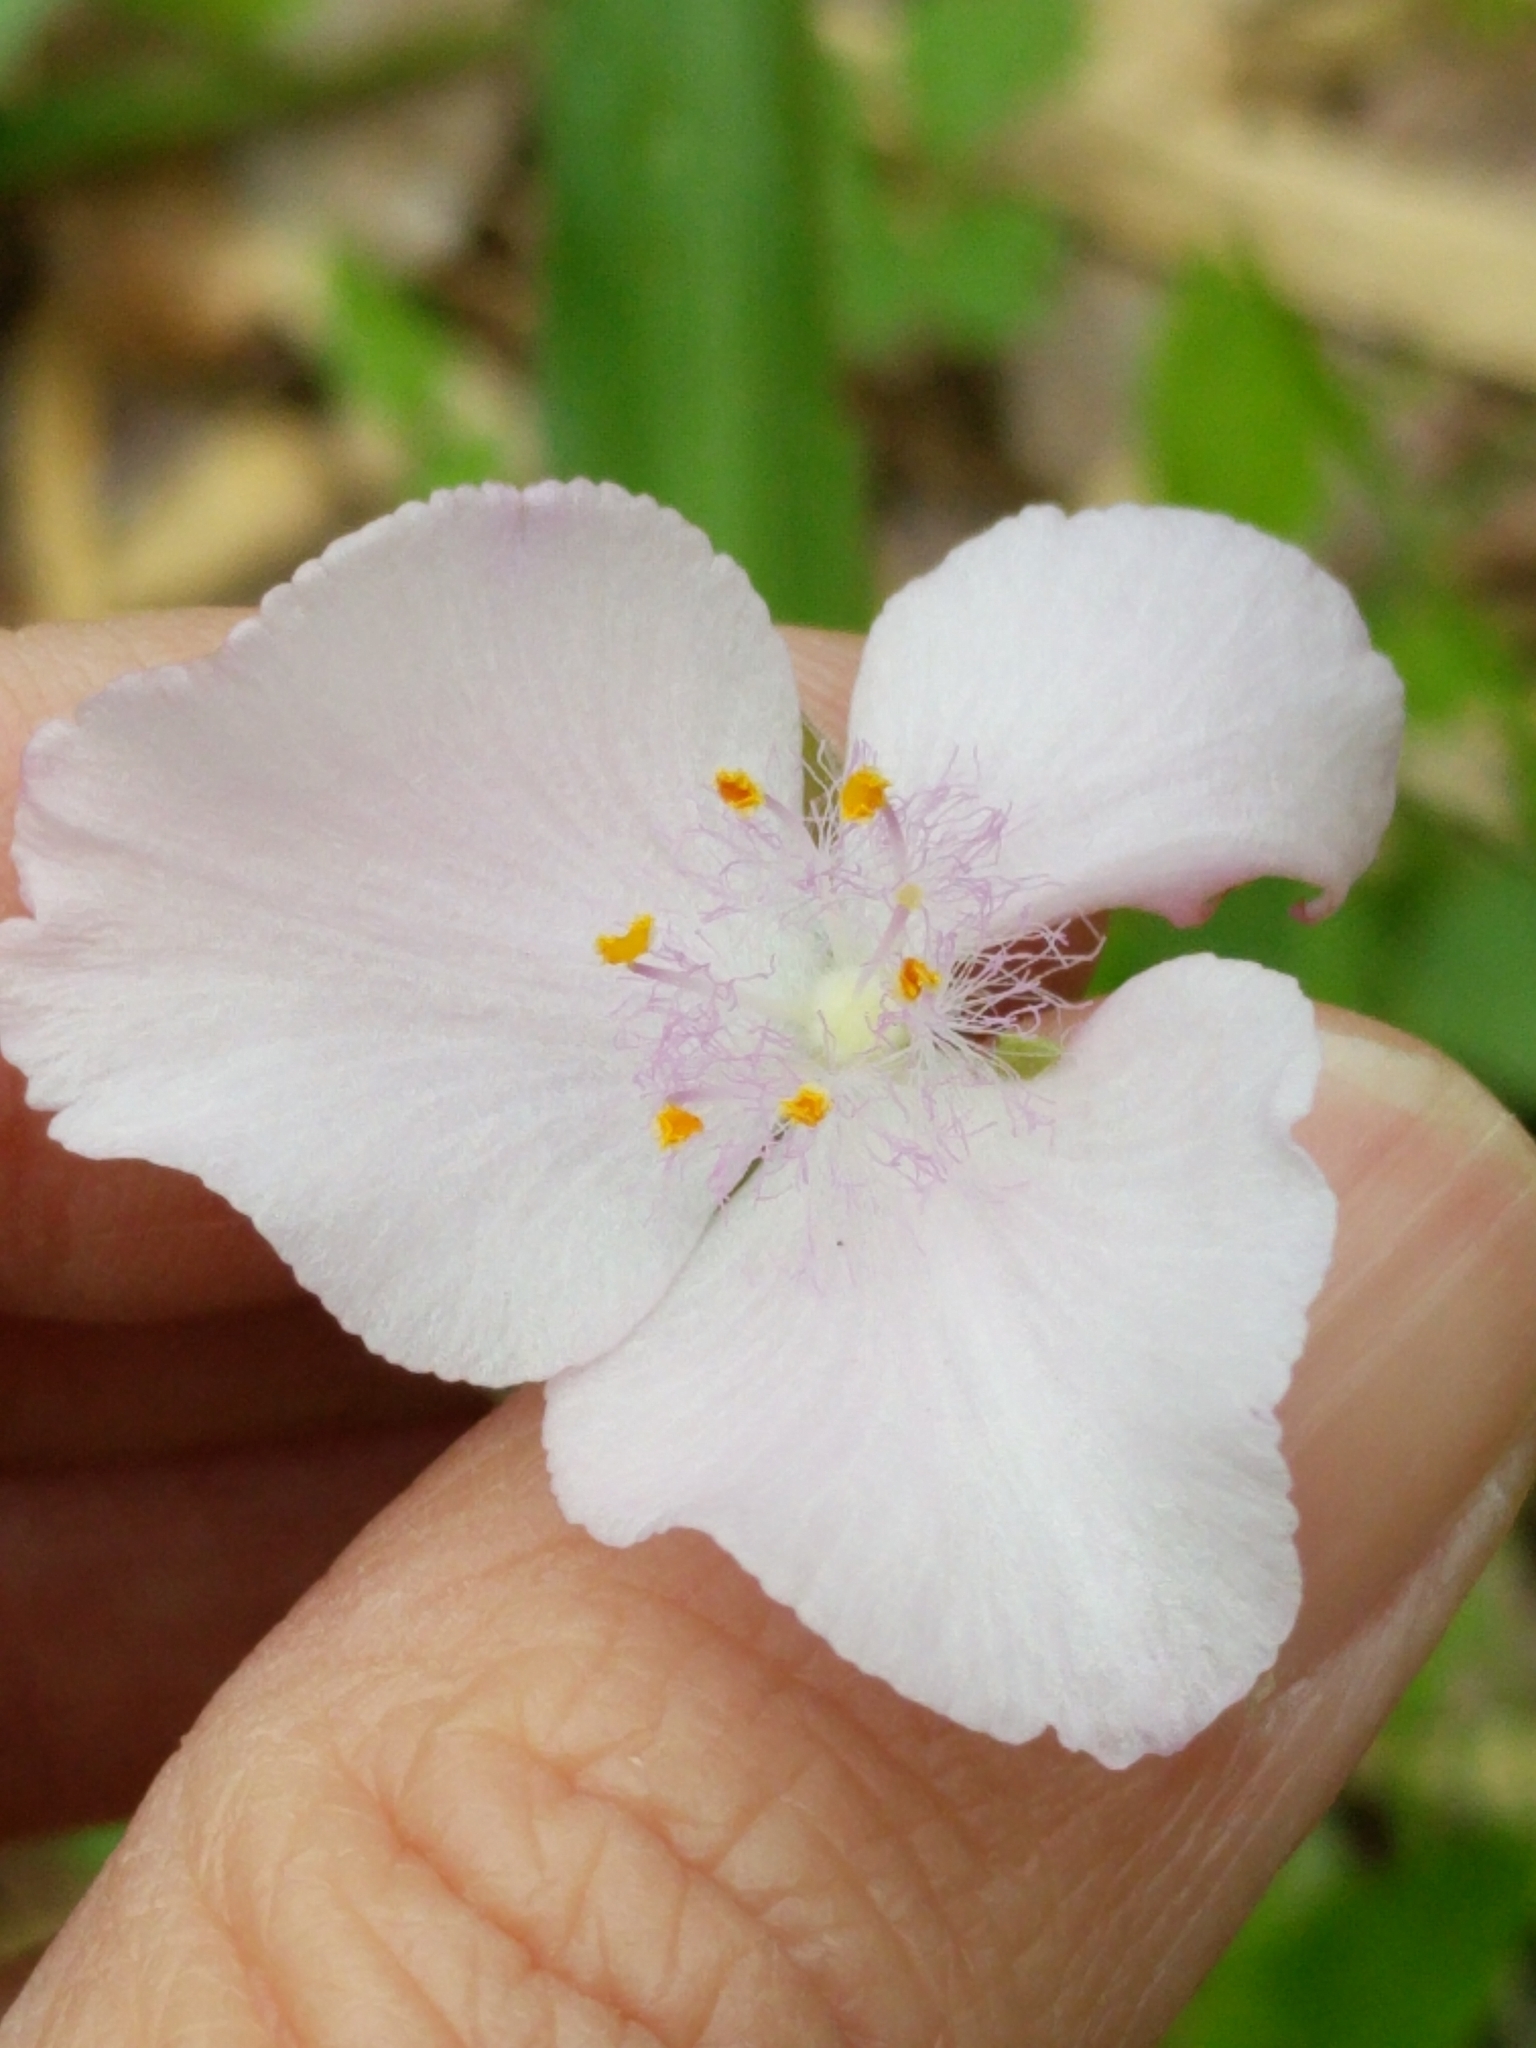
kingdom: Plantae
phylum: Tracheophyta
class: Liliopsida
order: Commelinales
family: Commelinaceae
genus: Tradescantia
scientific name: Tradescantia gigantea
